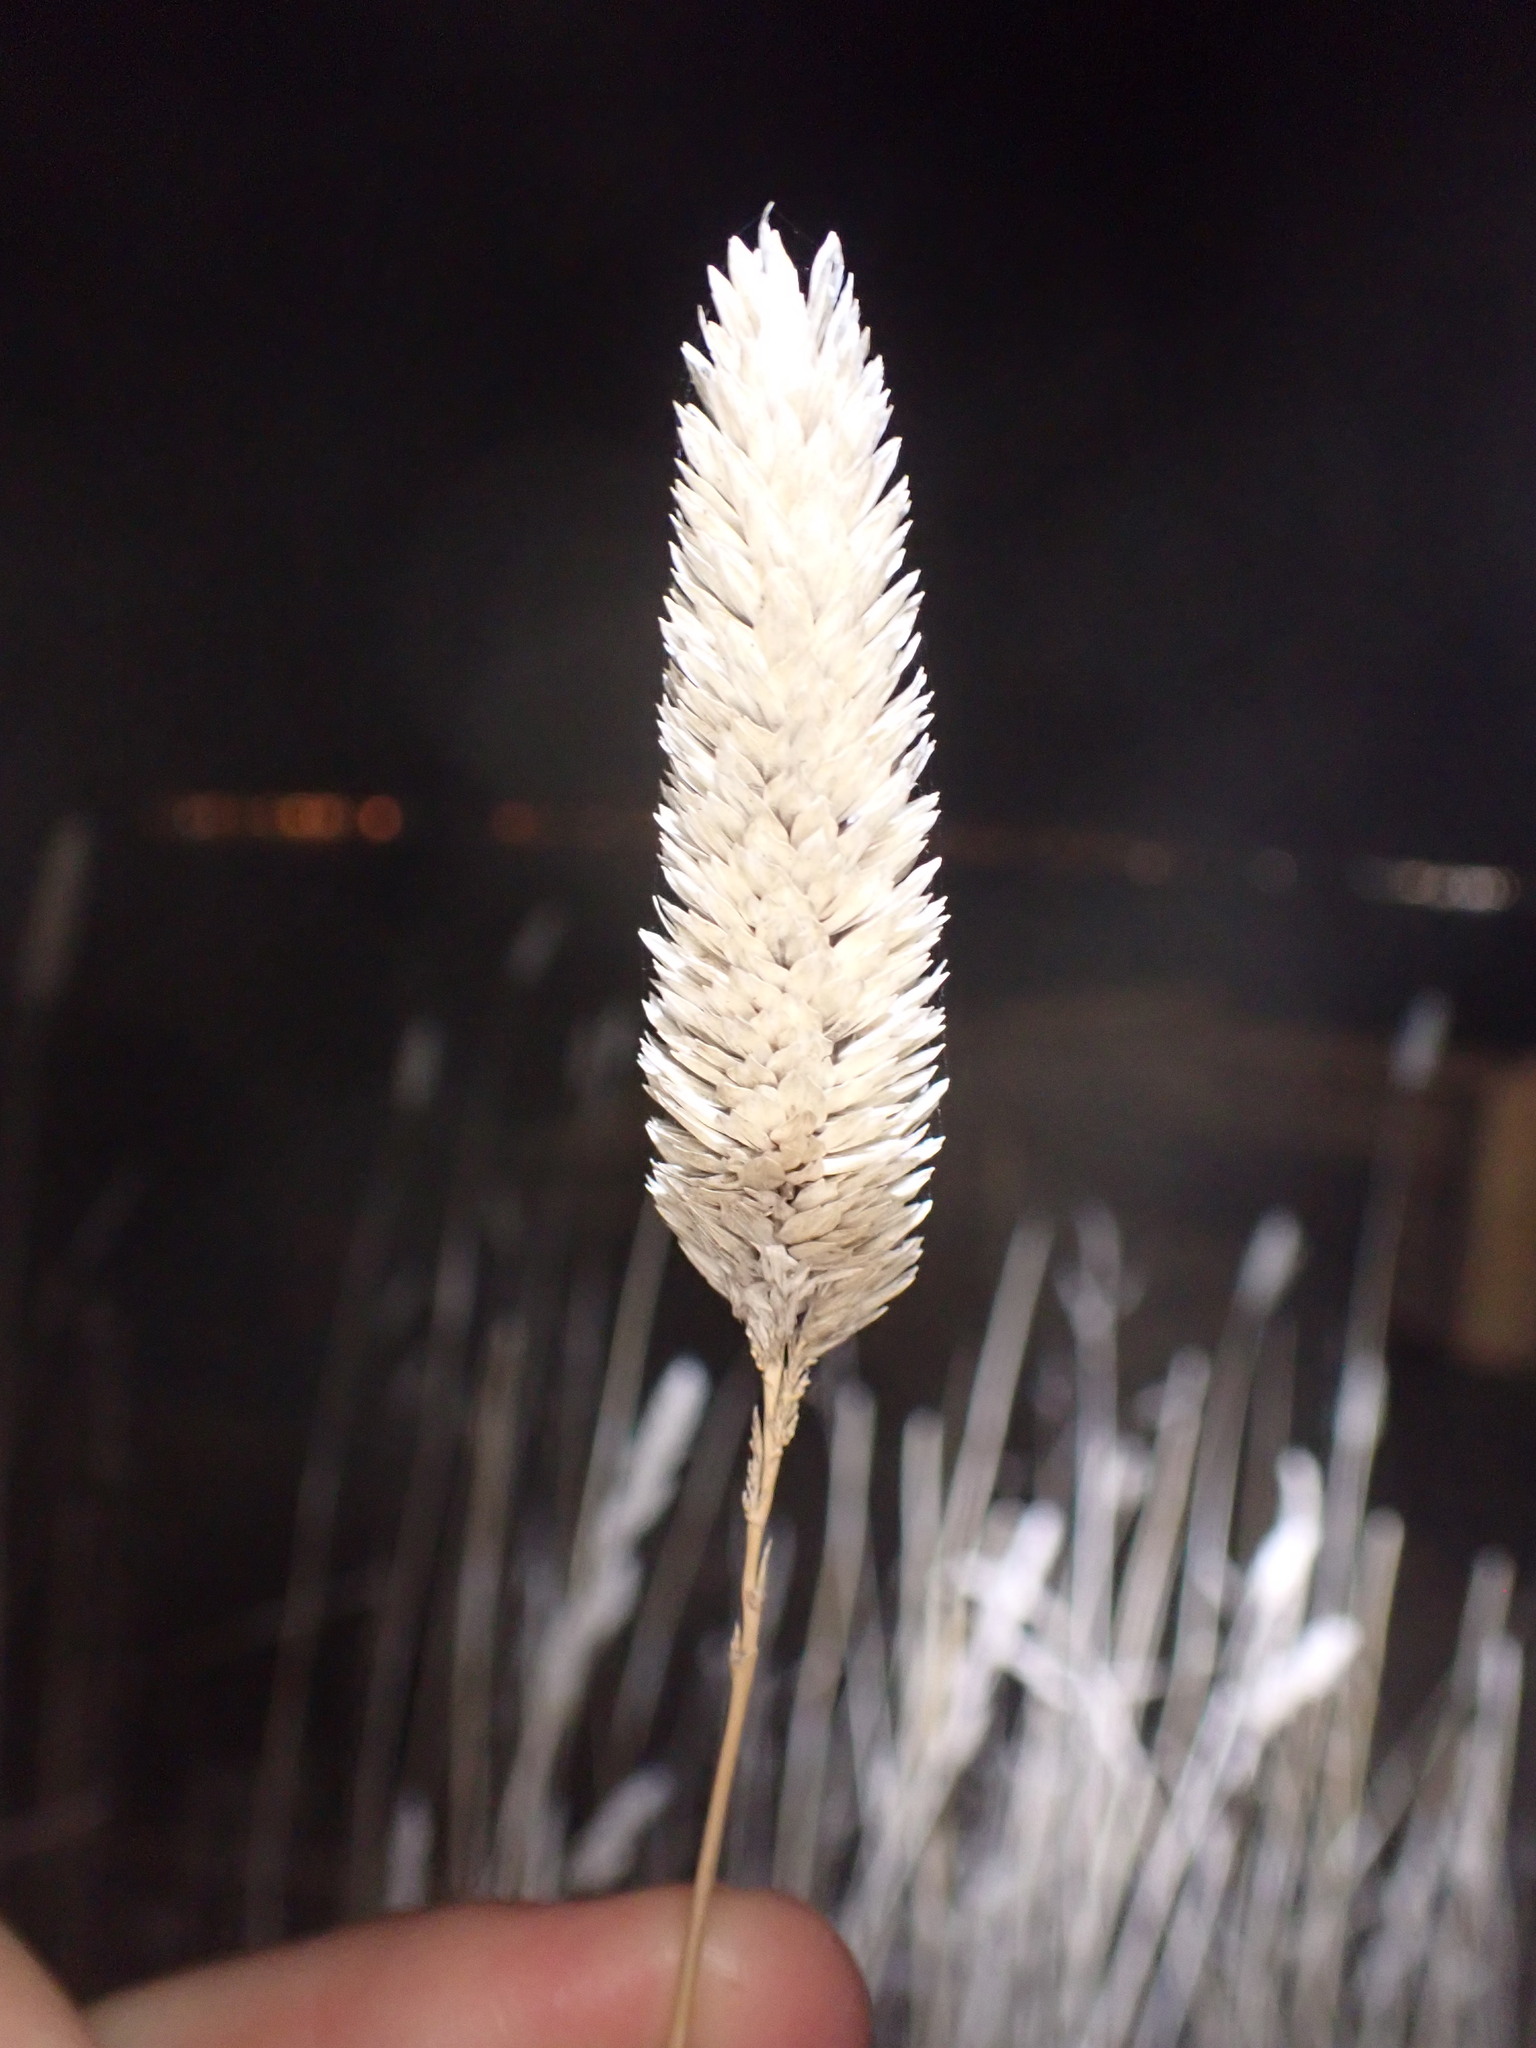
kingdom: Plantae
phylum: Tracheophyta
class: Liliopsida
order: Poales
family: Poaceae
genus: Phalaris
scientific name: Phalaris aquatica
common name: Bulbous canary-grass
